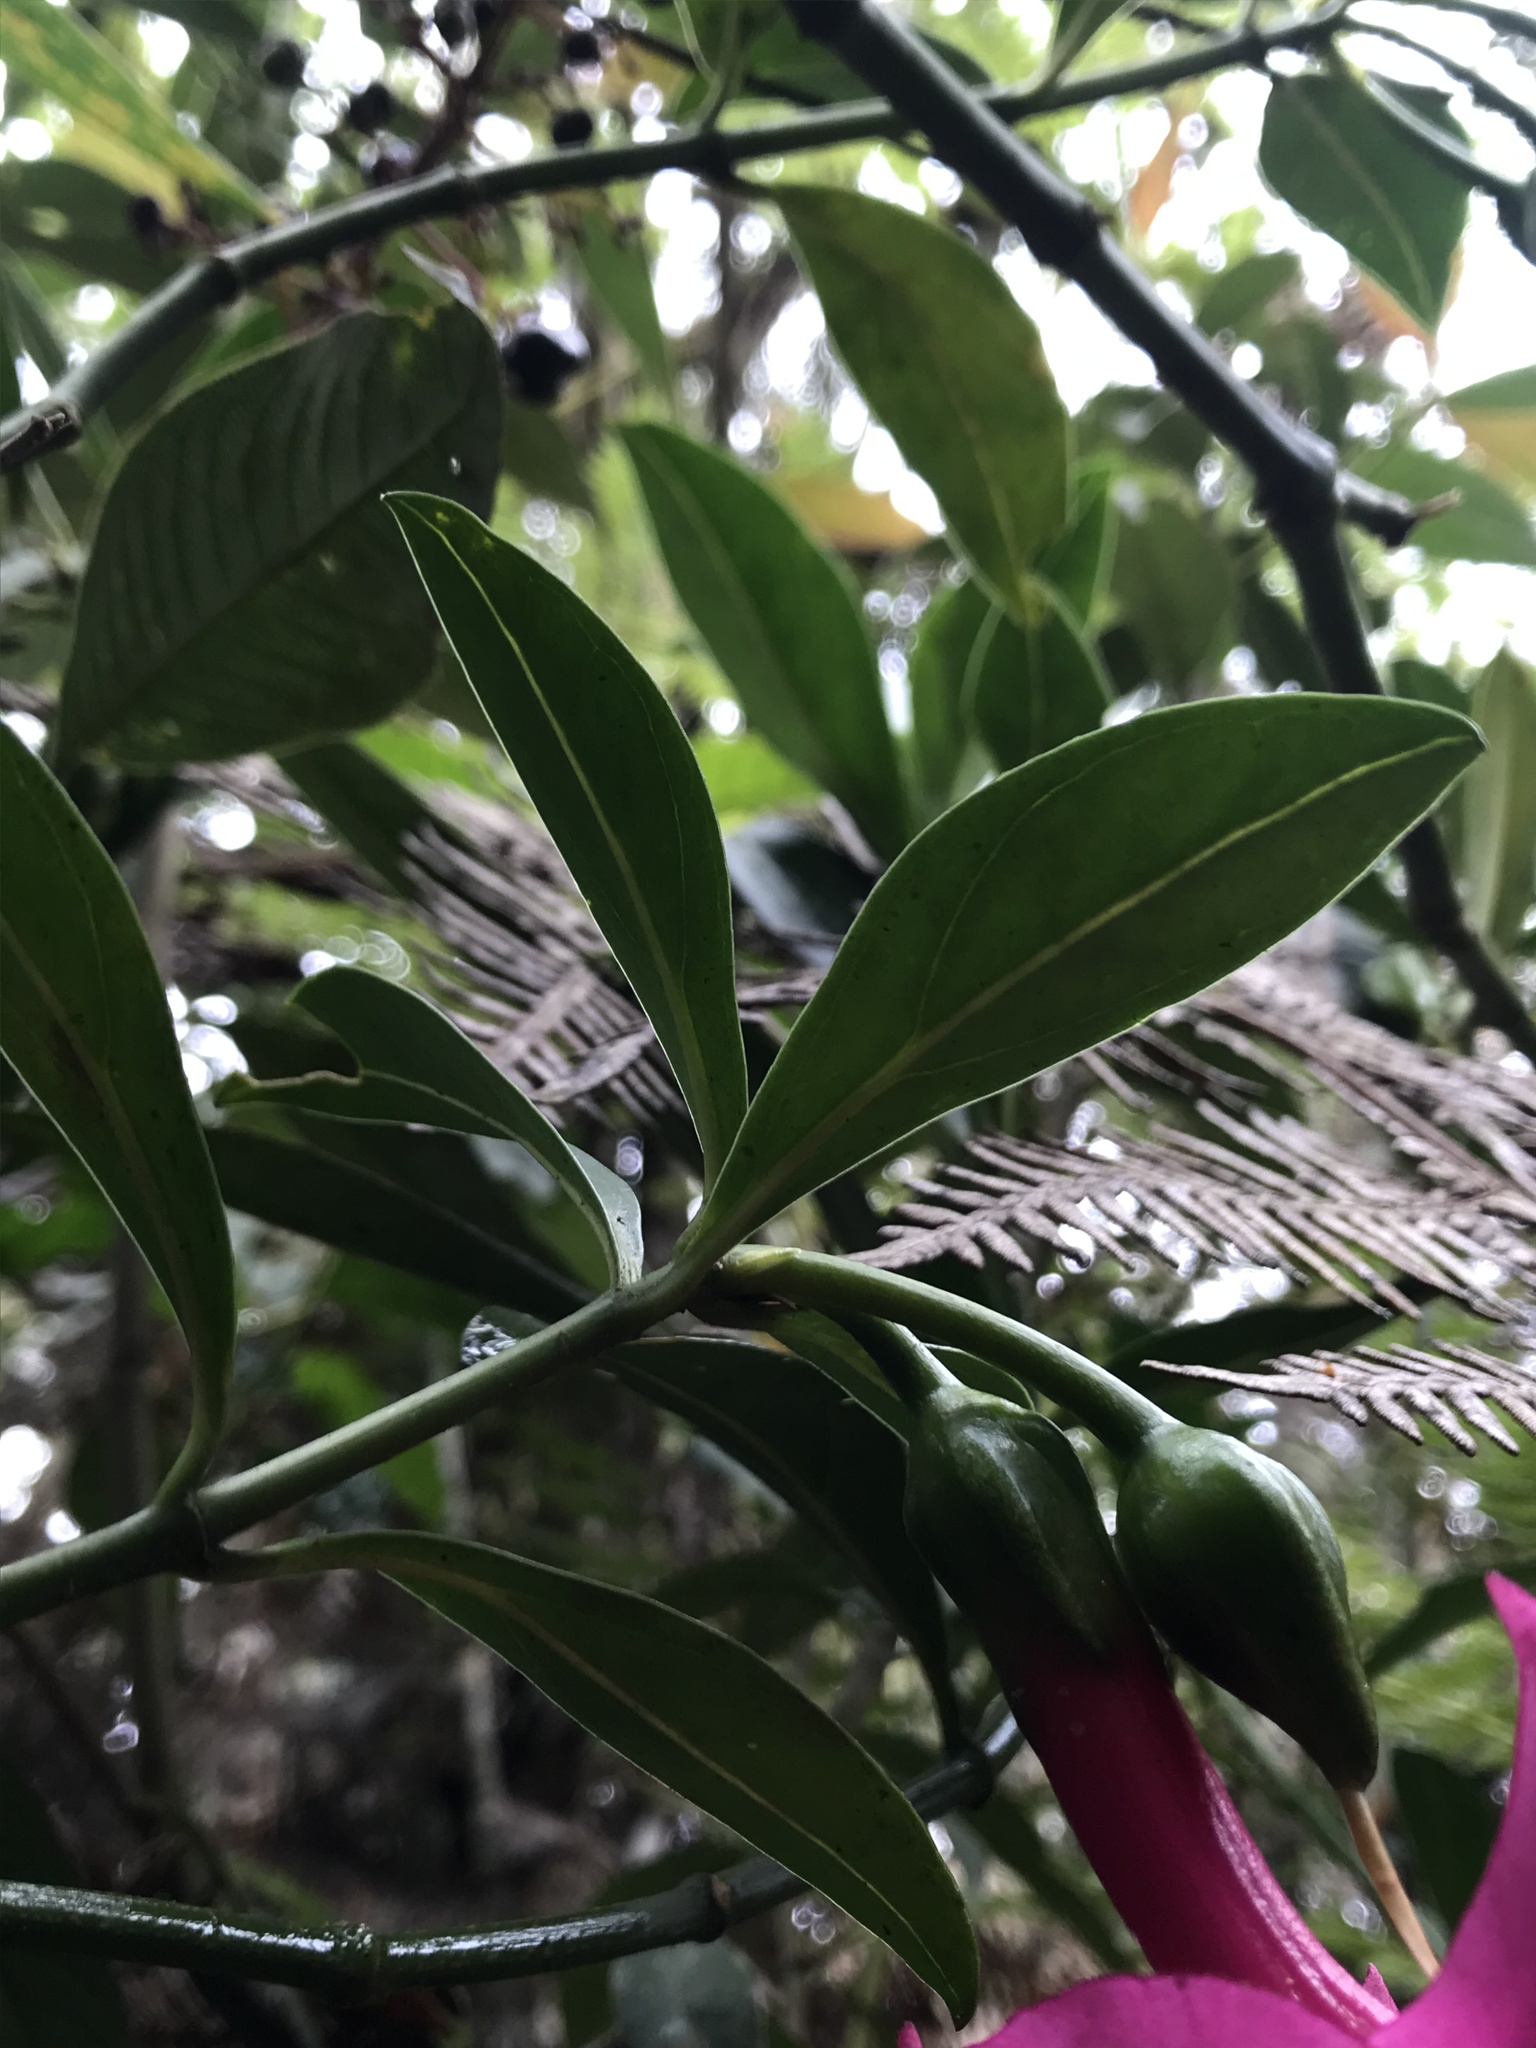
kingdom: Plantae
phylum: Tracheophyta
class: Magnoliopsida
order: Gentianales
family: Gentianaceae
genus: Symbolanthus
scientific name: Symbolanthus anomalus
